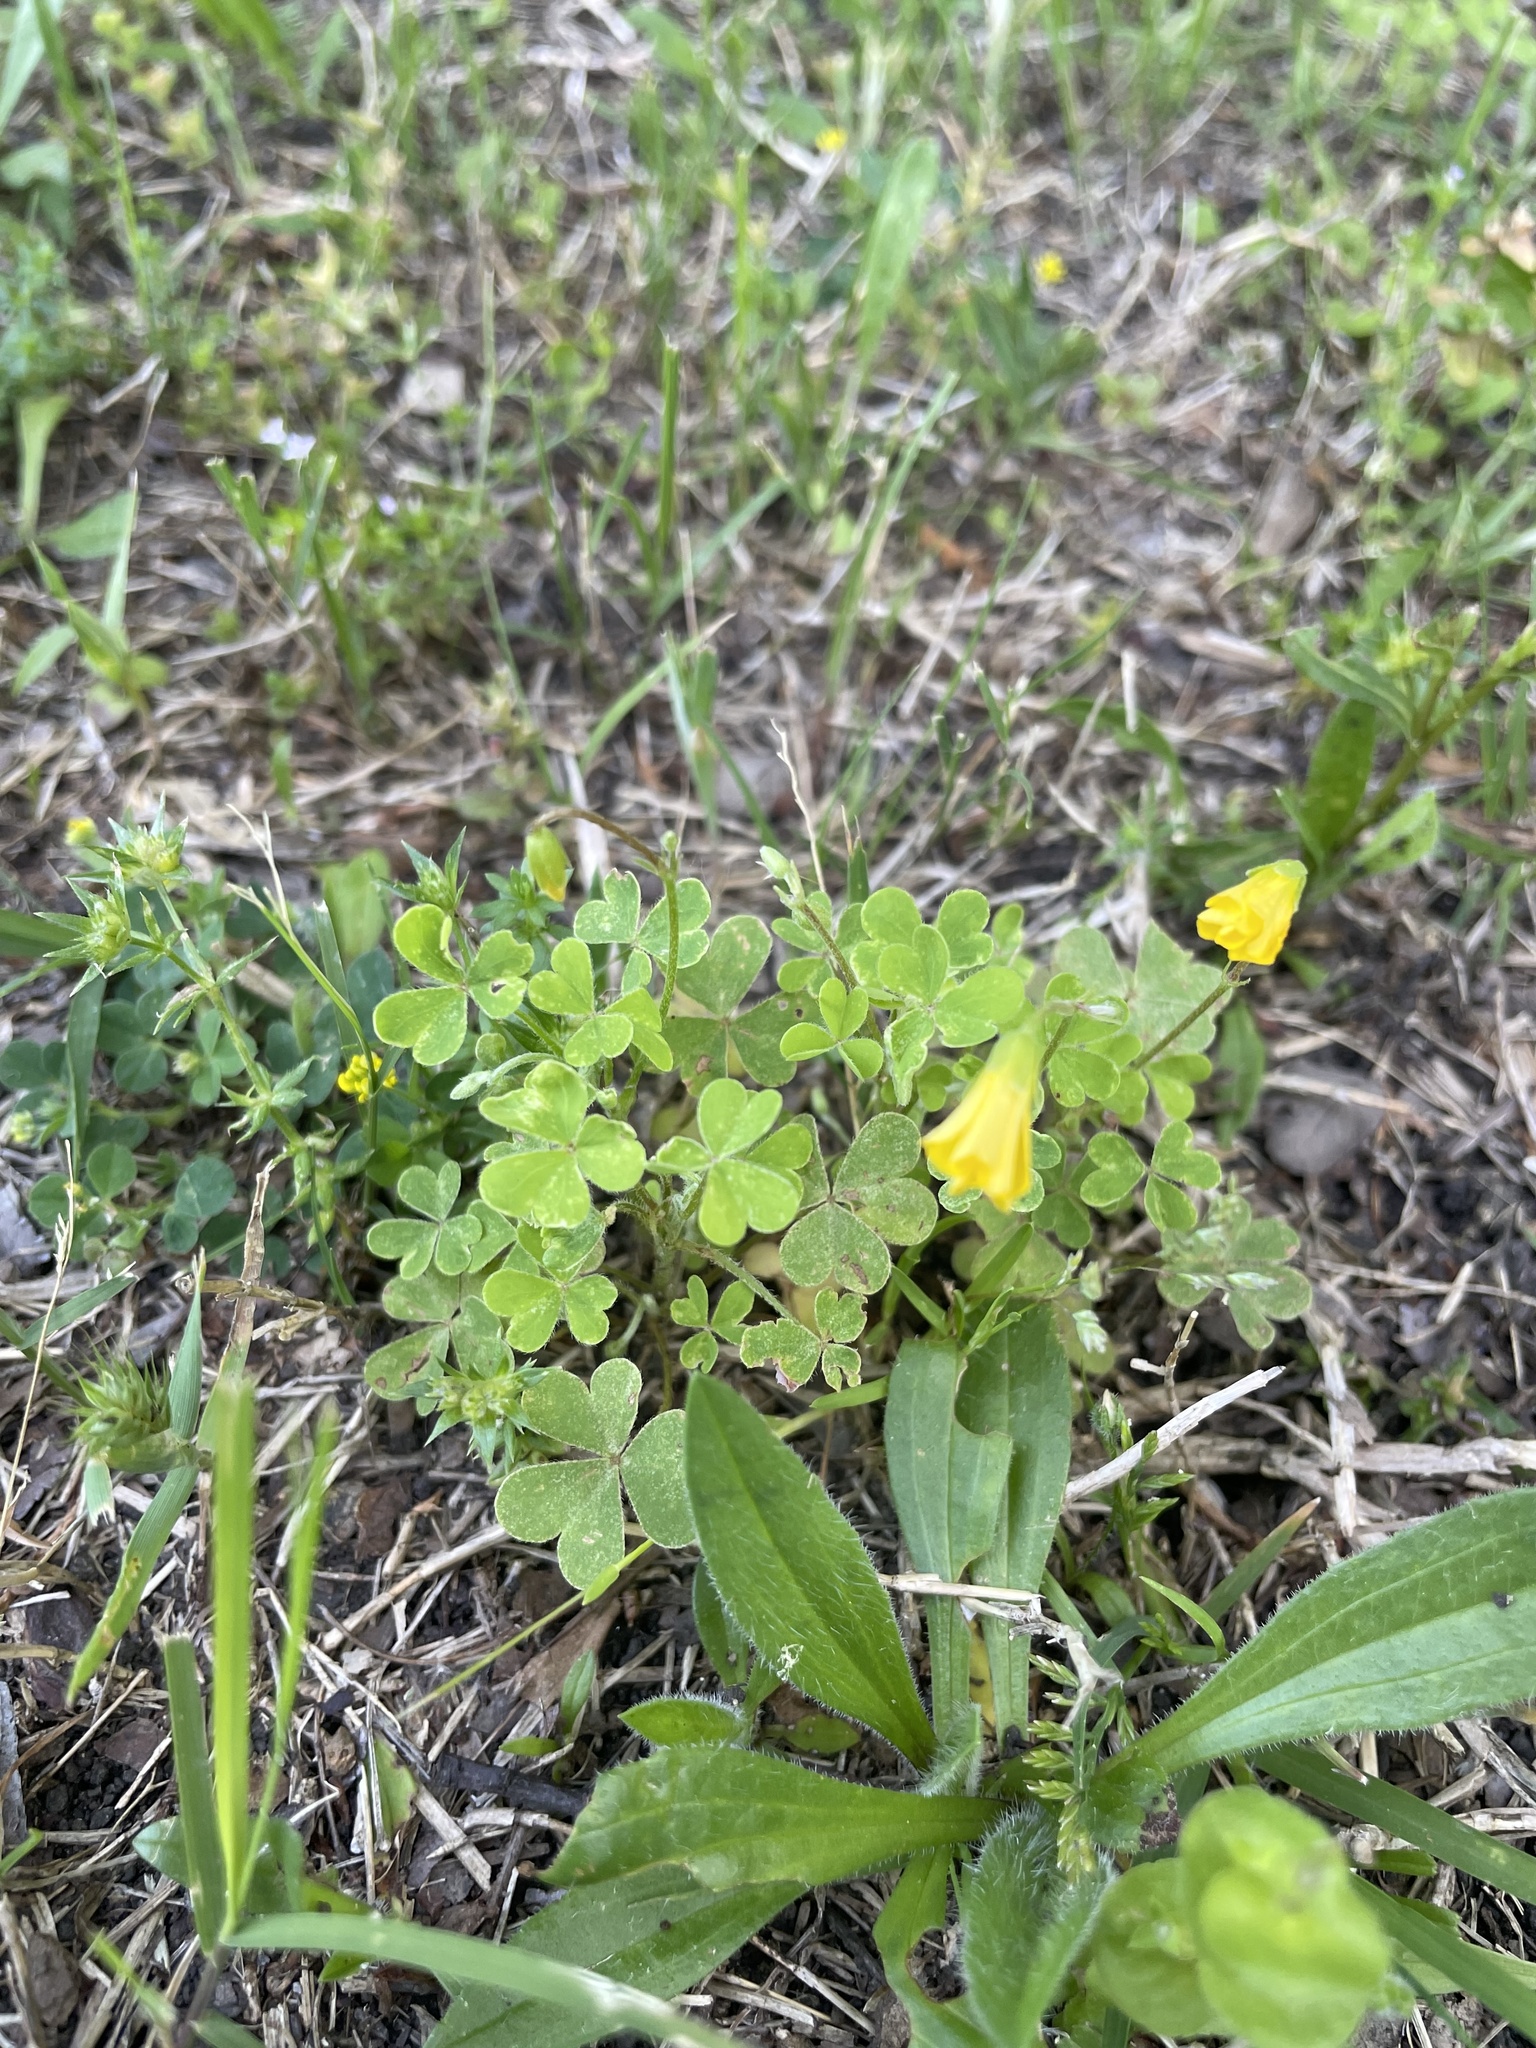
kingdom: Plantae
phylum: Tracheophyta
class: Magnoliopsida
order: Oxalidales
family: Oxalidaceae
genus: Oxalis
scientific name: Oxalis dillenii
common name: Sussex yellow-sorrel
